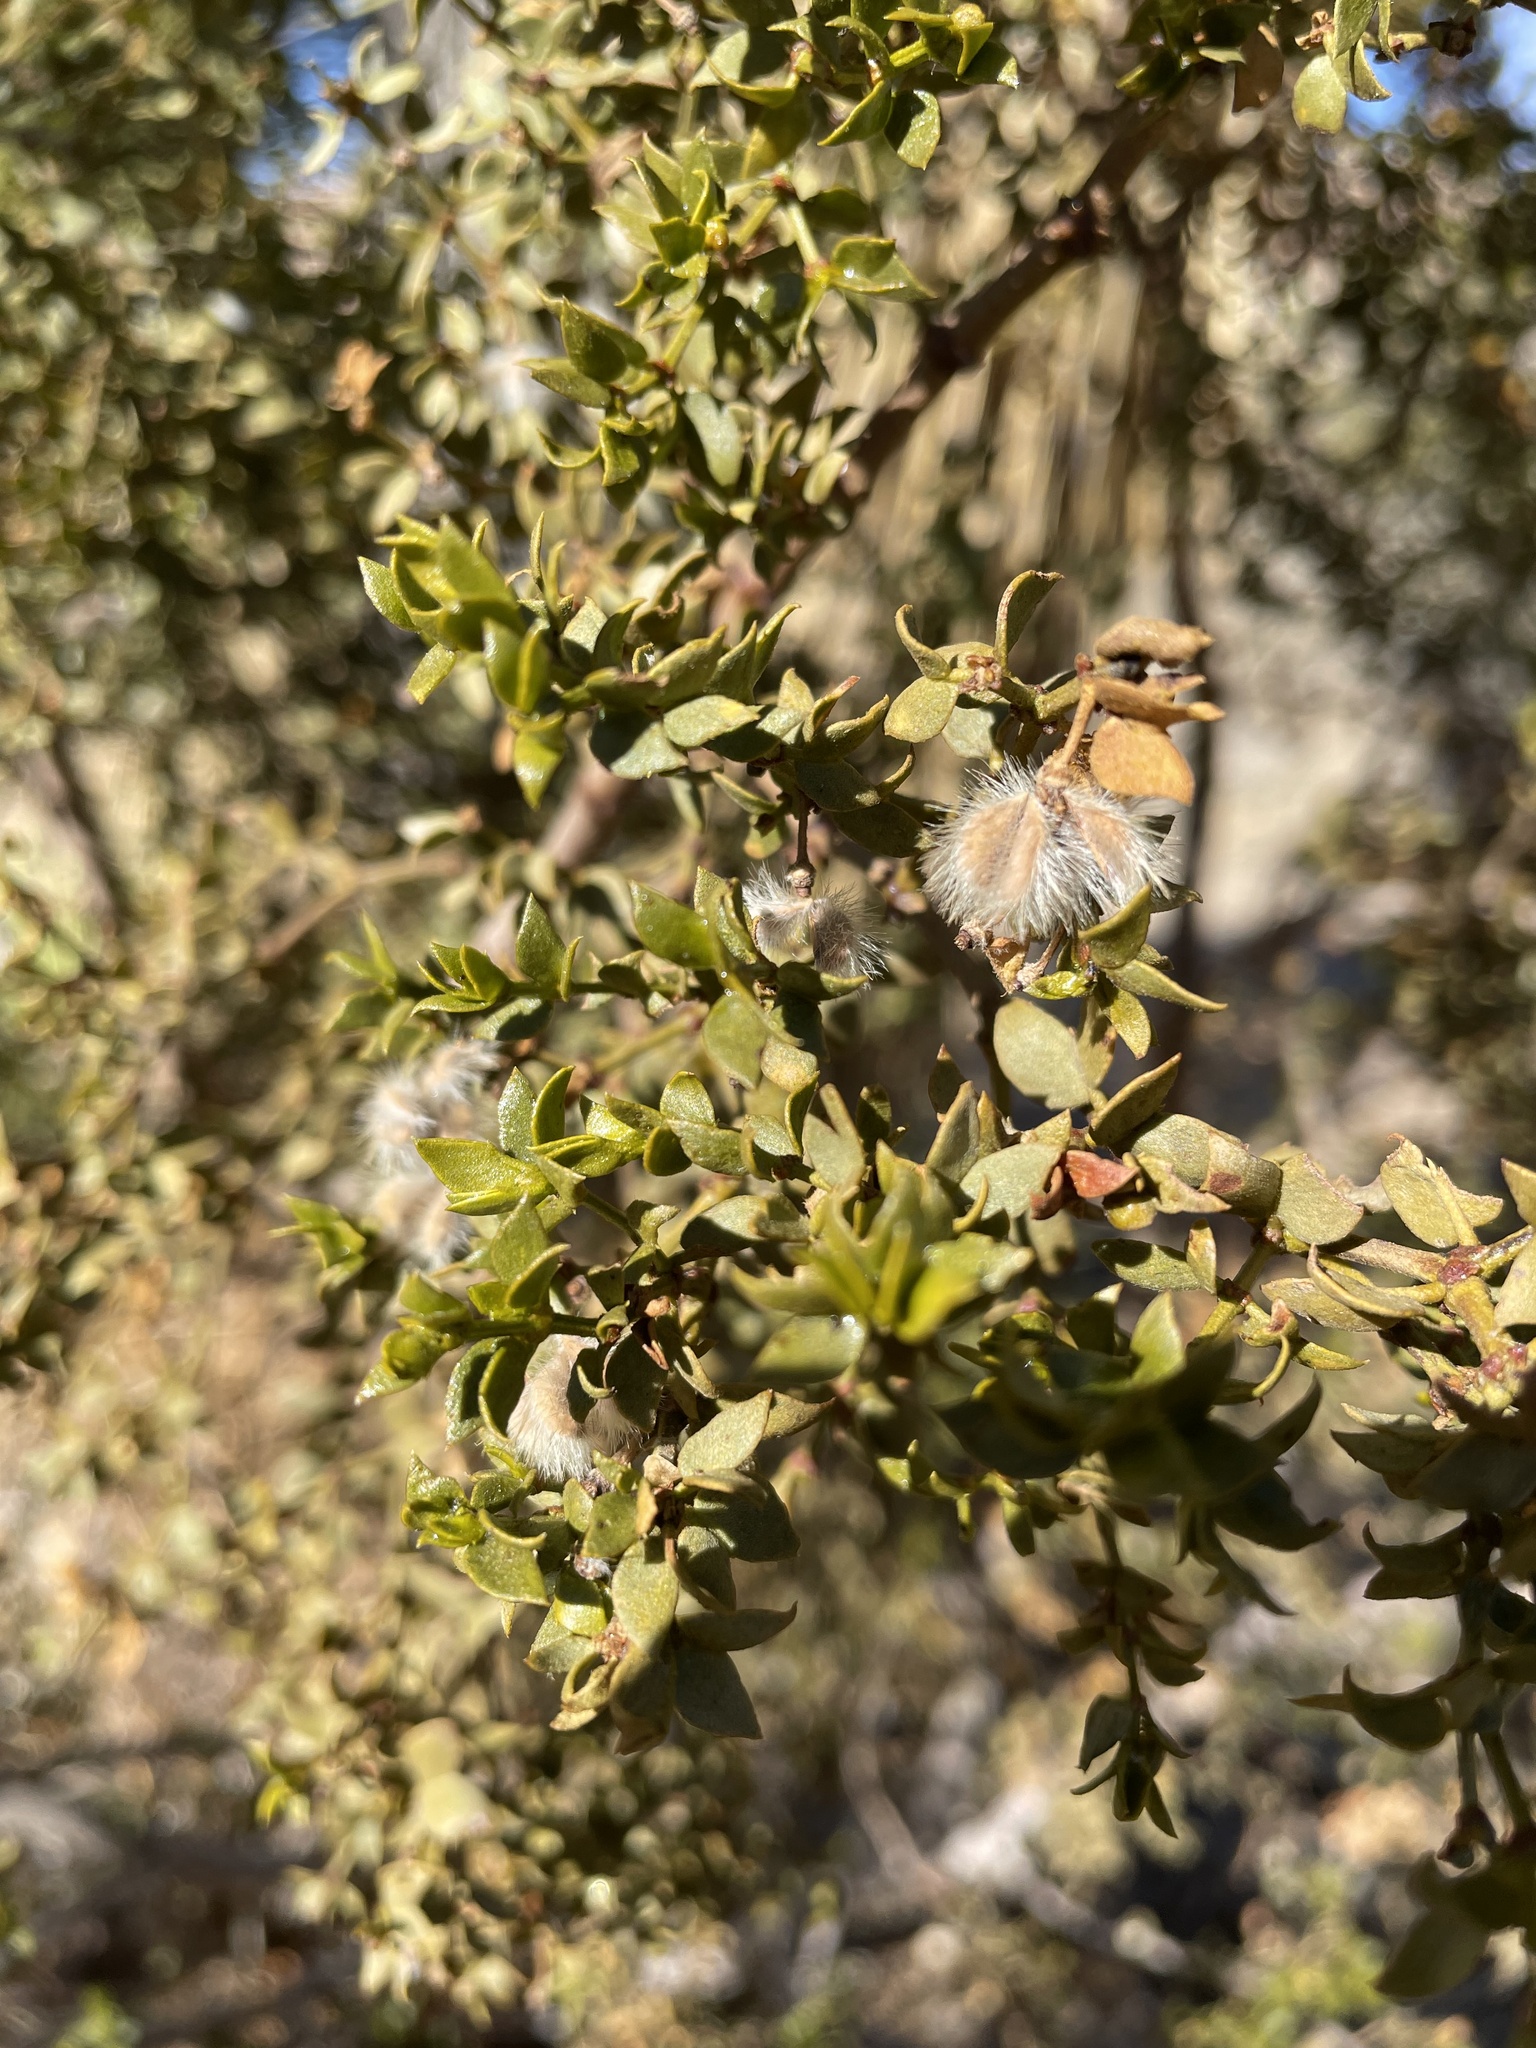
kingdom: Plantae
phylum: Tracheophyta
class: Magnoliopsida
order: Zygophyllales
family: Zygophyllaceae
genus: Larrea
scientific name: Larrea tridentata
